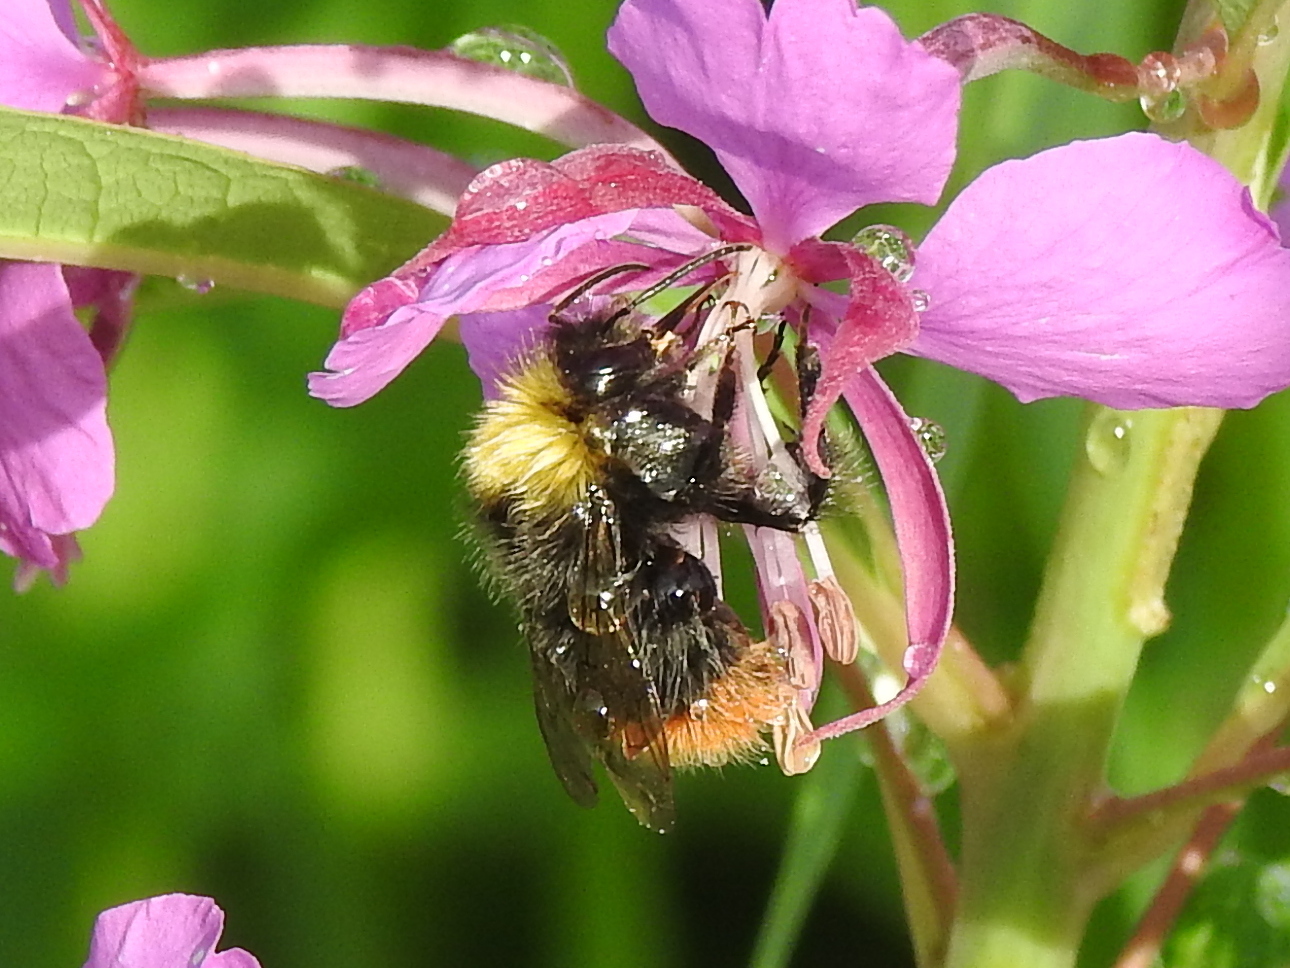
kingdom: Animalia
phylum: Arthropoda
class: Insecta
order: Hymenoptera
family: Apidae
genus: Bombus
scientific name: Bombus pratorum
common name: Early humble-bee
